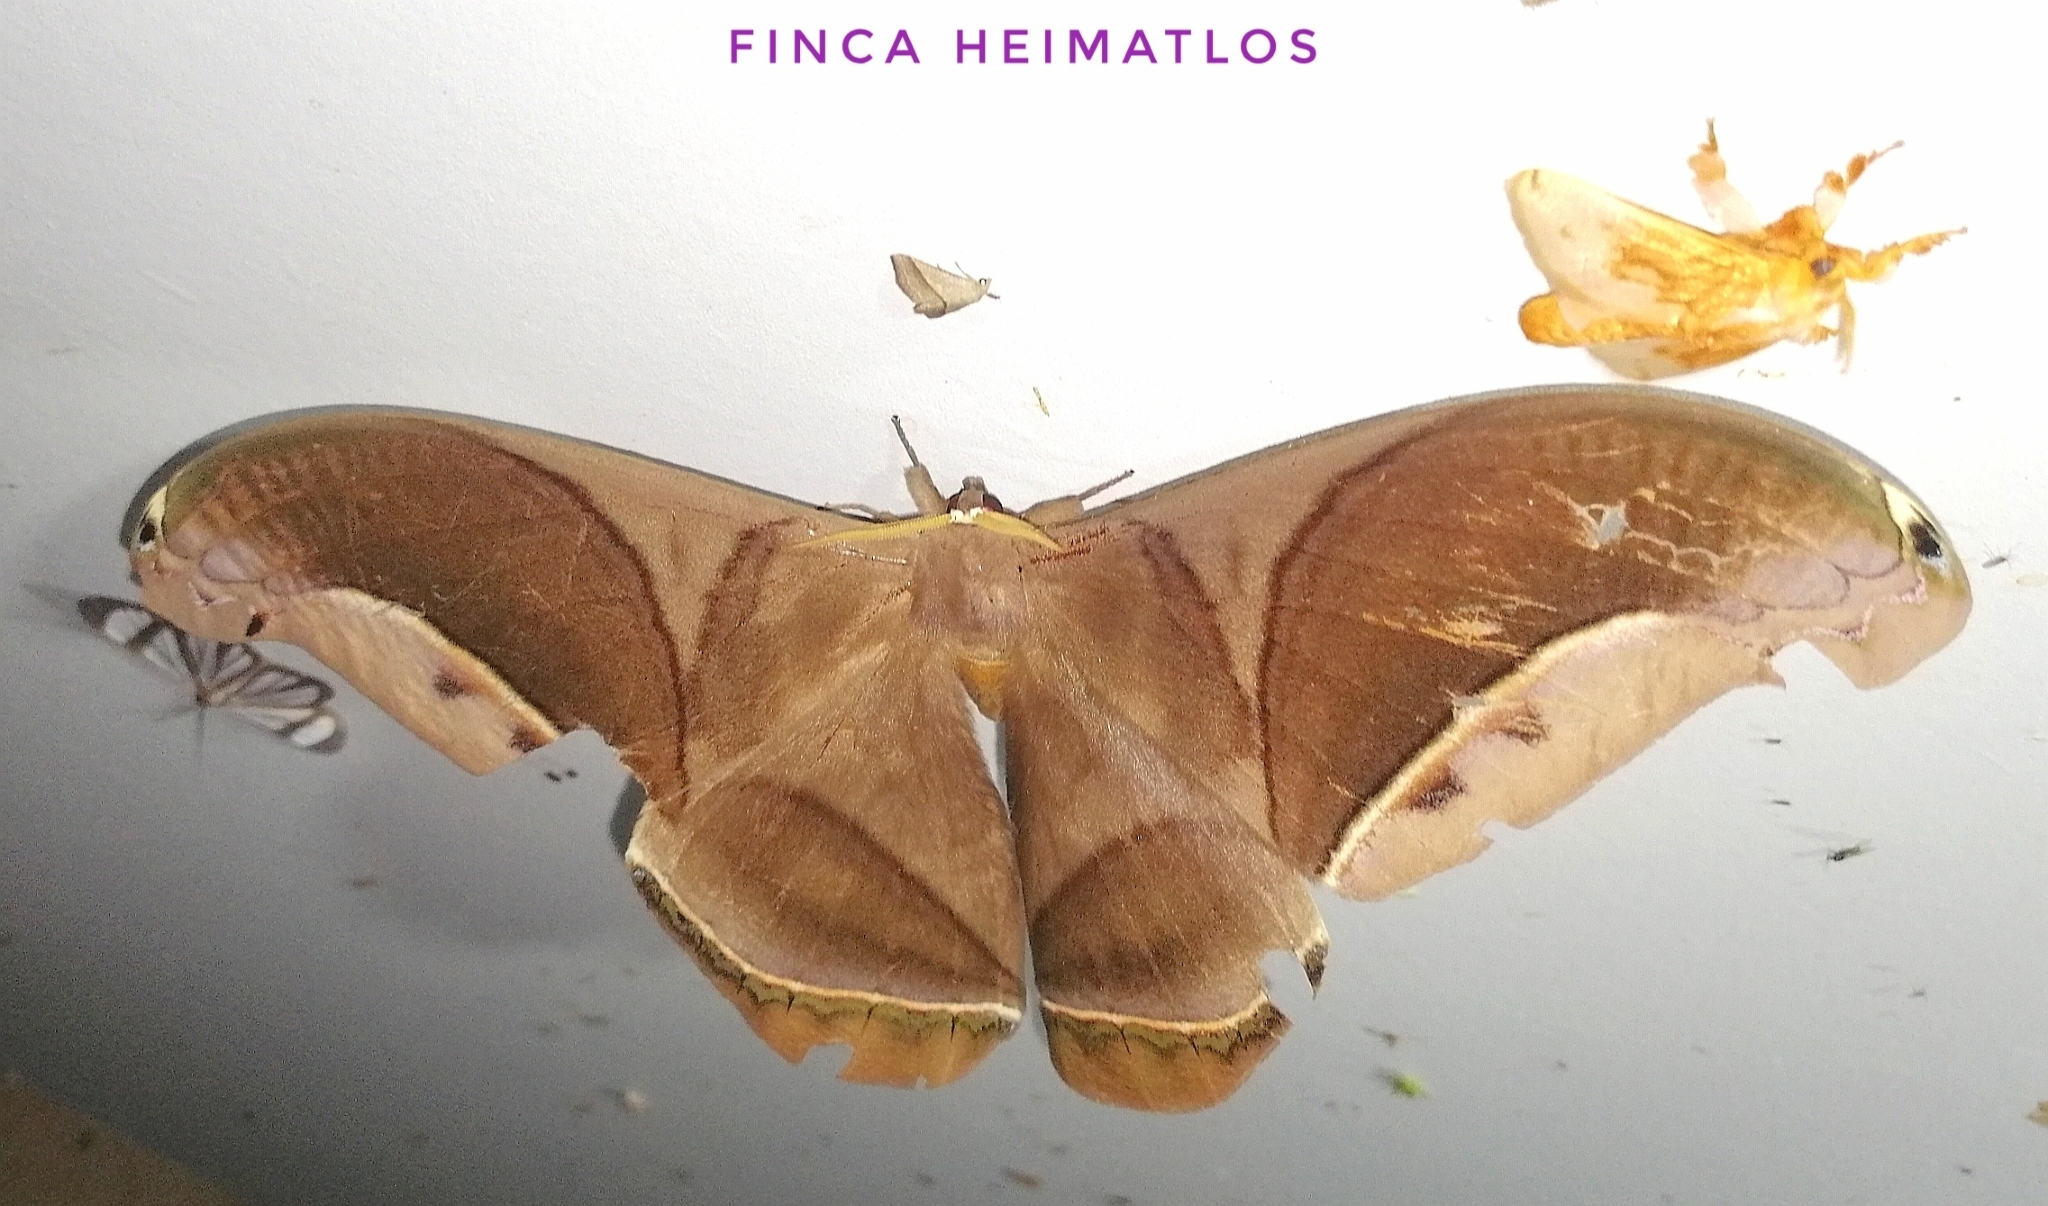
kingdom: Animalia
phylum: Arthropoda
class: Insecta
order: Lepidoptera
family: Saturniidae
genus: Rhescyntis
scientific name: Rhescyntis hippodamia
